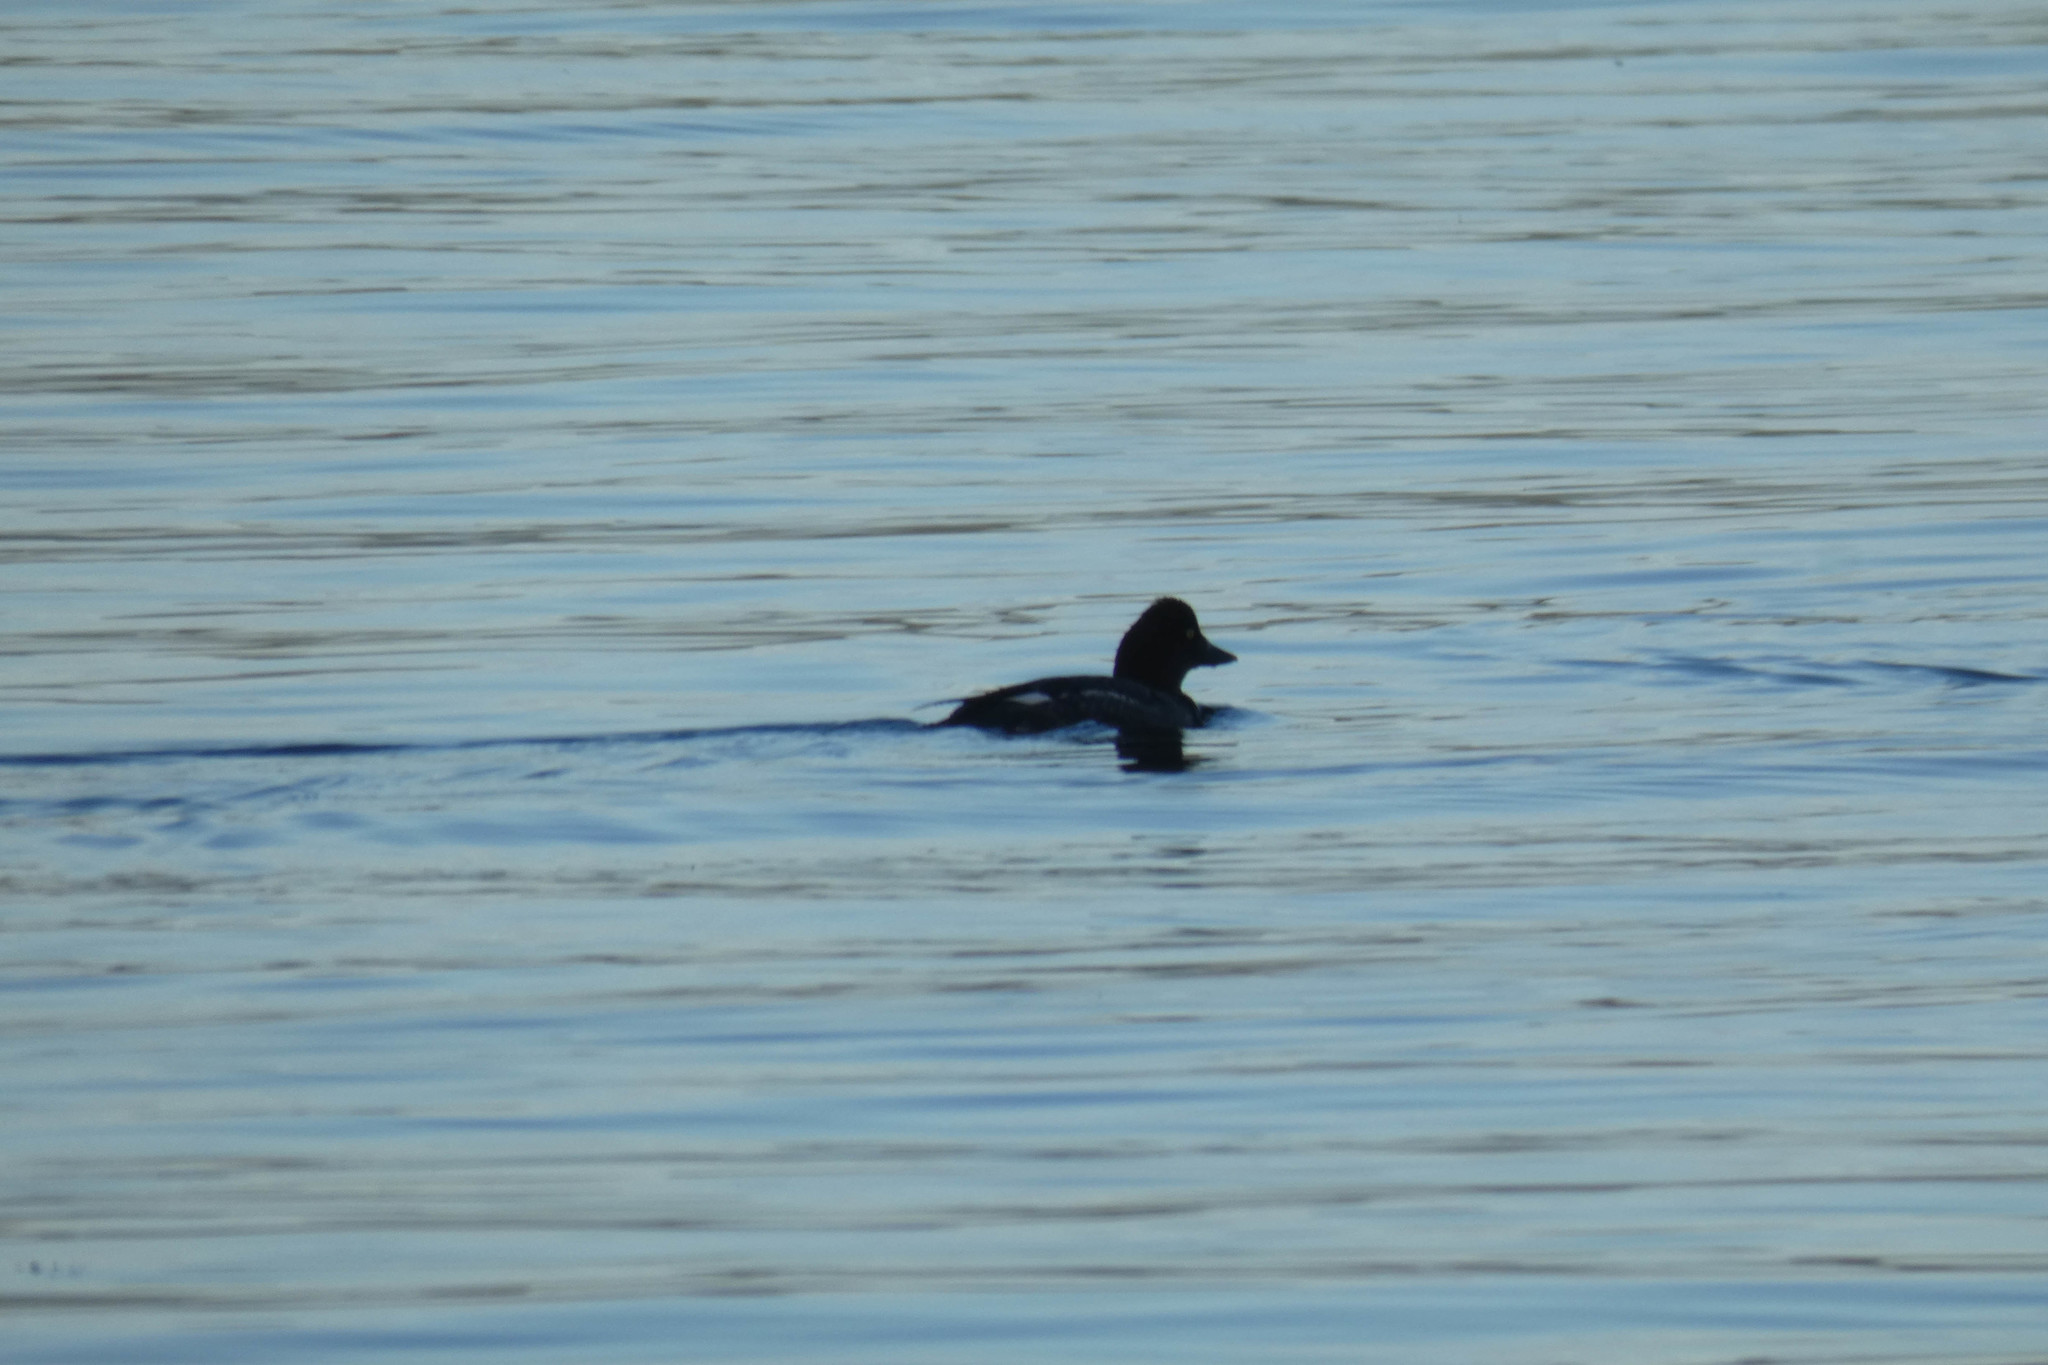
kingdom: Animalia
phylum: Chordata
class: Aves
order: Anseriformes
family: Anatidae
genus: Bucephala
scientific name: Bucephala clangula
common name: Common goldeneye
